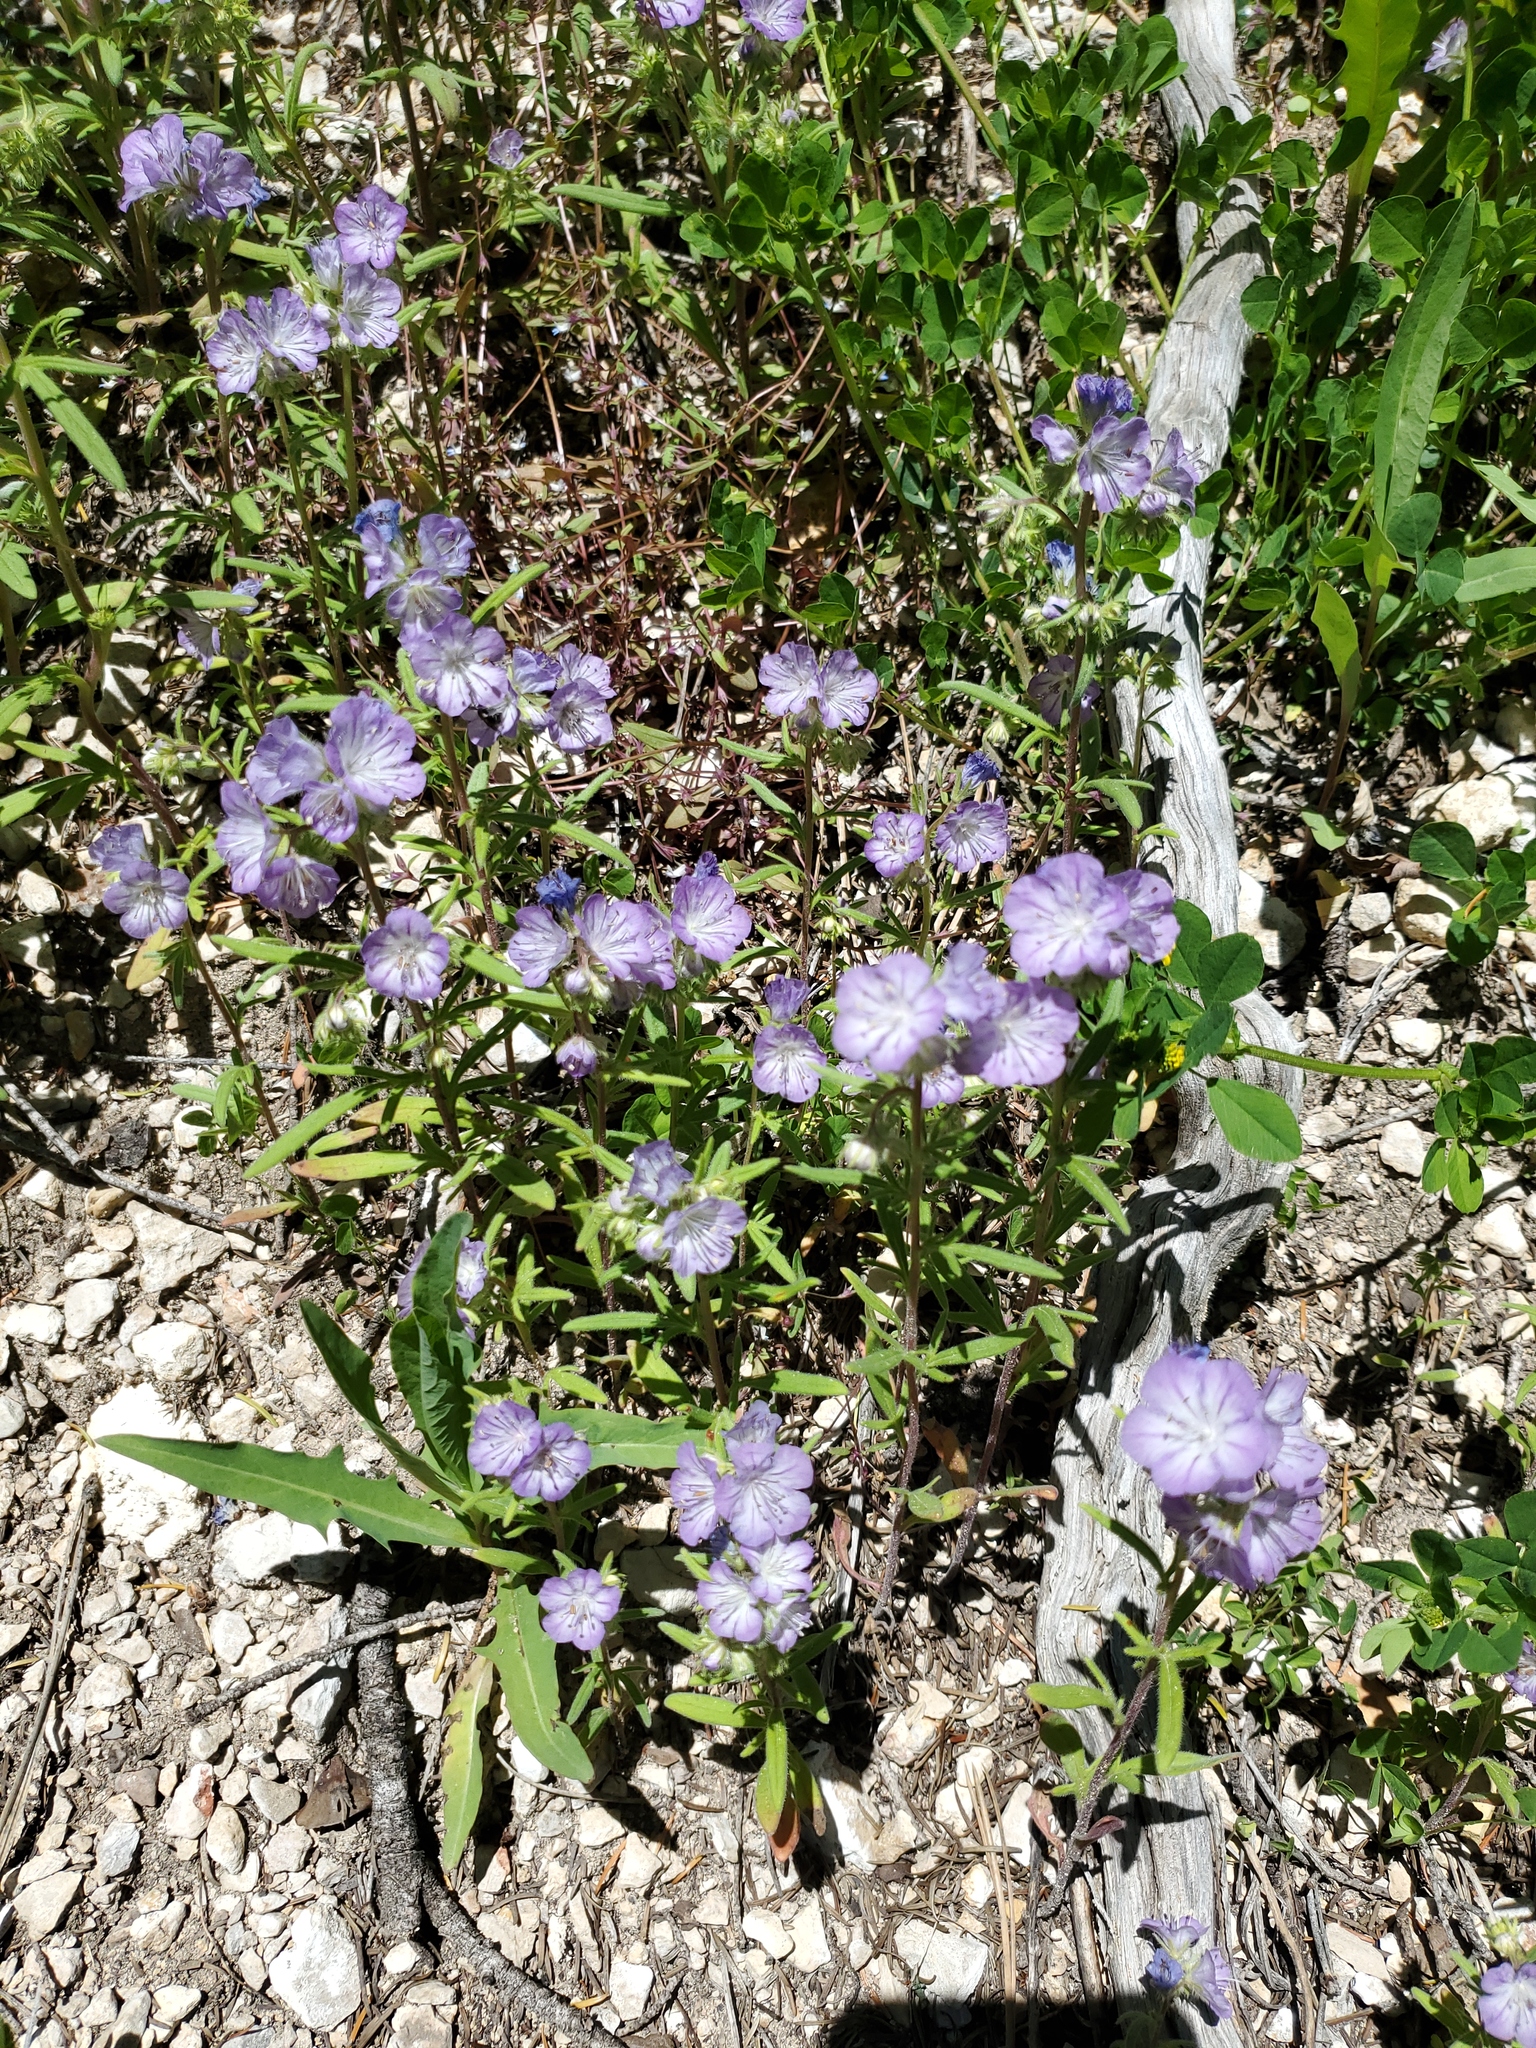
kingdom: Plantae
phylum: Tracheophyta
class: Magnoliopsida
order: Boraginales
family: Hydrophyllaceae
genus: Phacelia
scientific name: Phacelia linearis
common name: Linear-leaved phacelia
